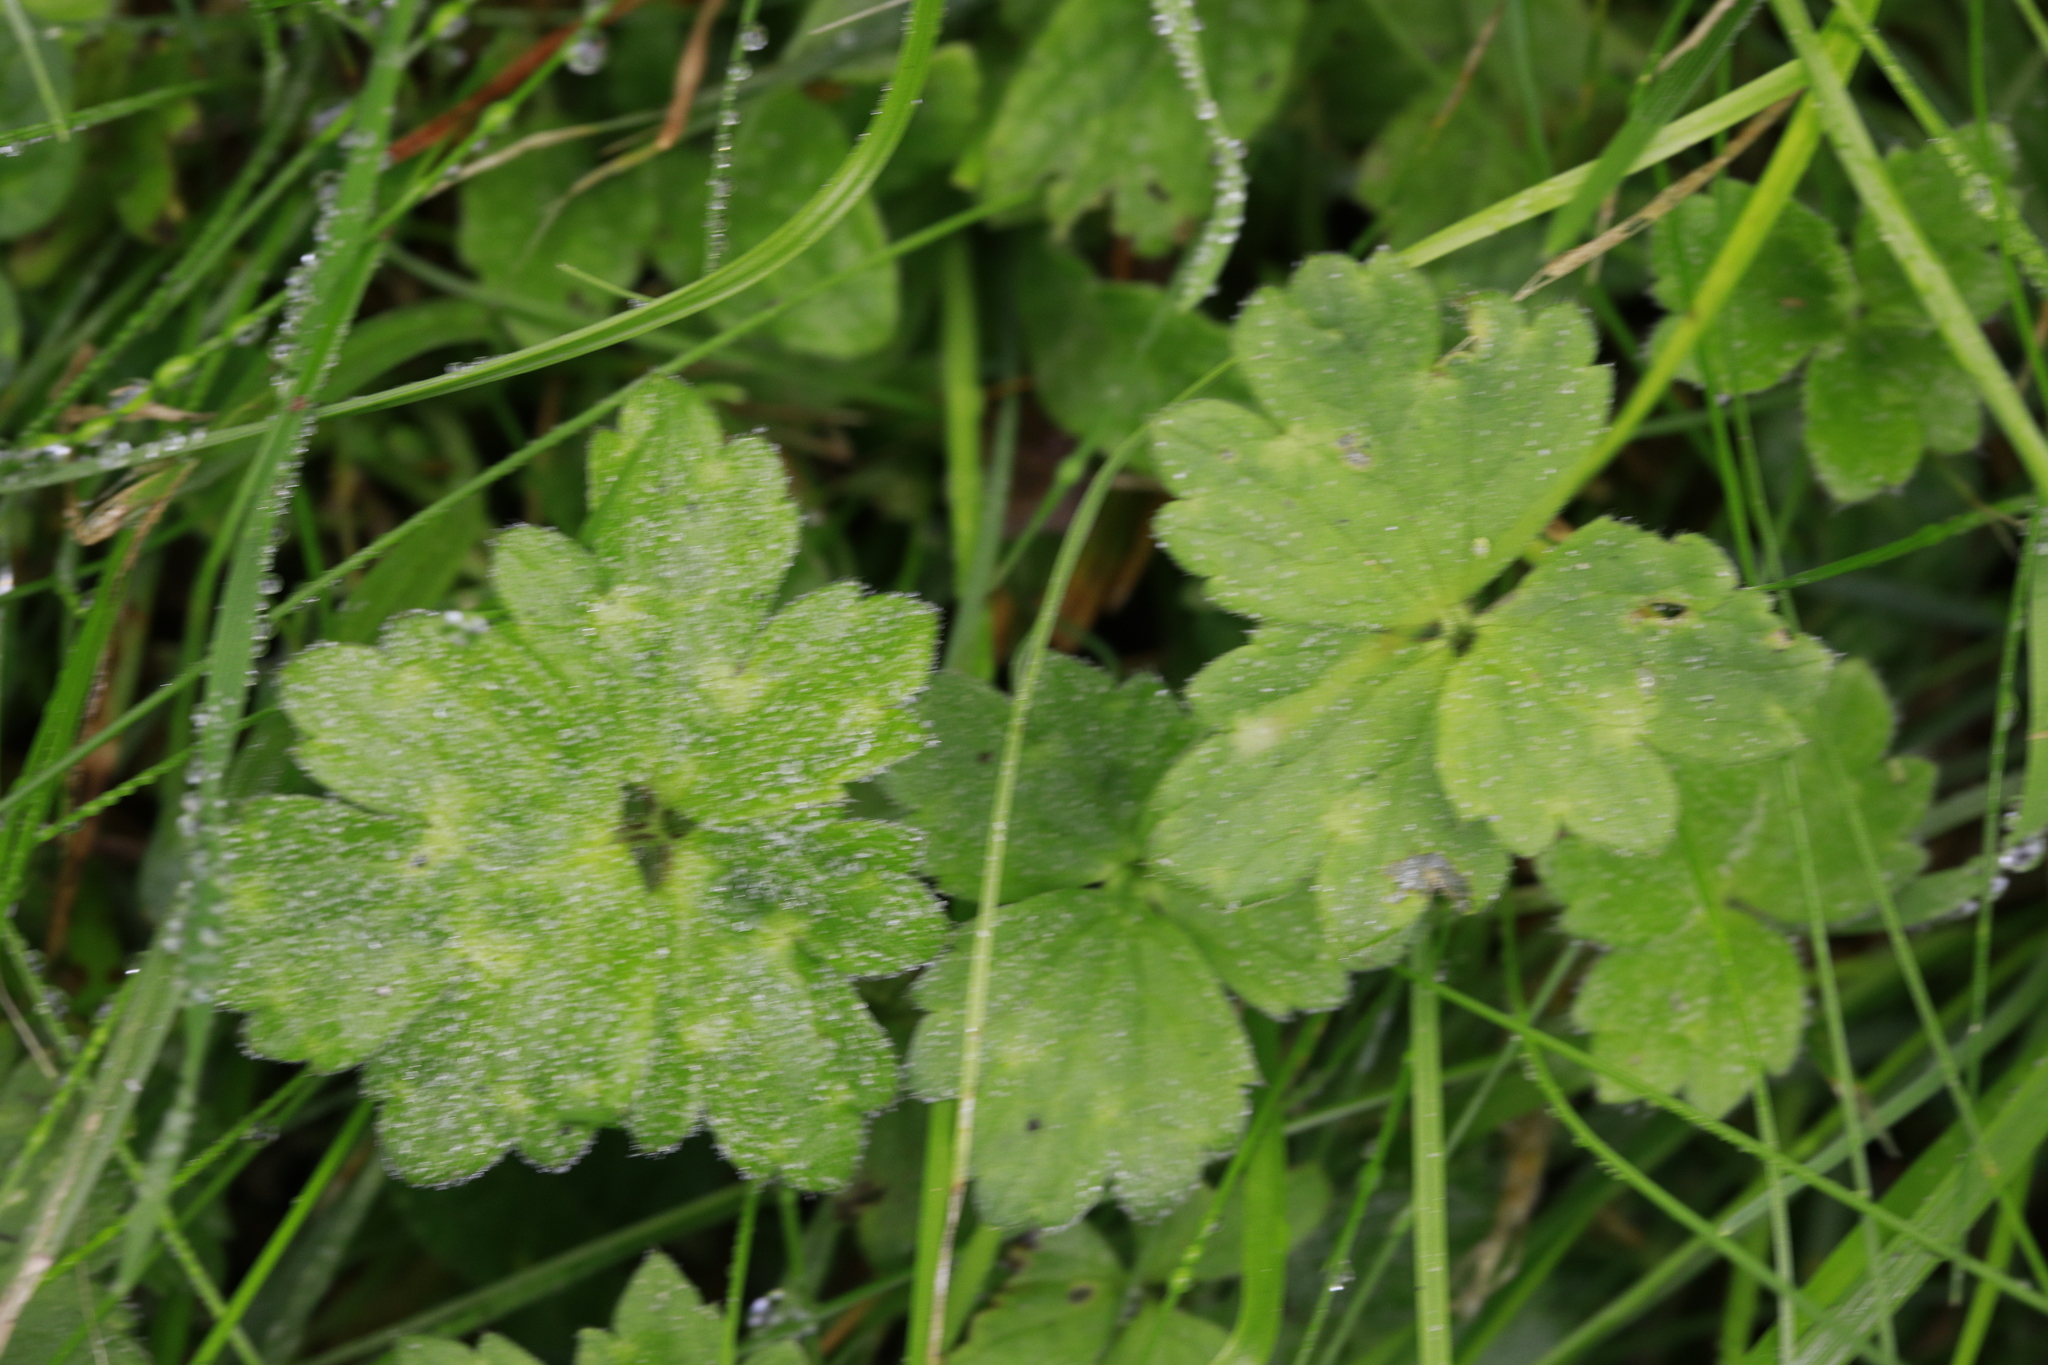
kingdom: Plantae
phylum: Tracheophyta
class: Magnoliopsida
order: Ranunculales
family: Ranunculaceae
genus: Ranunculus
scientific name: Ranunculus repens
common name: Creeping buttercup
